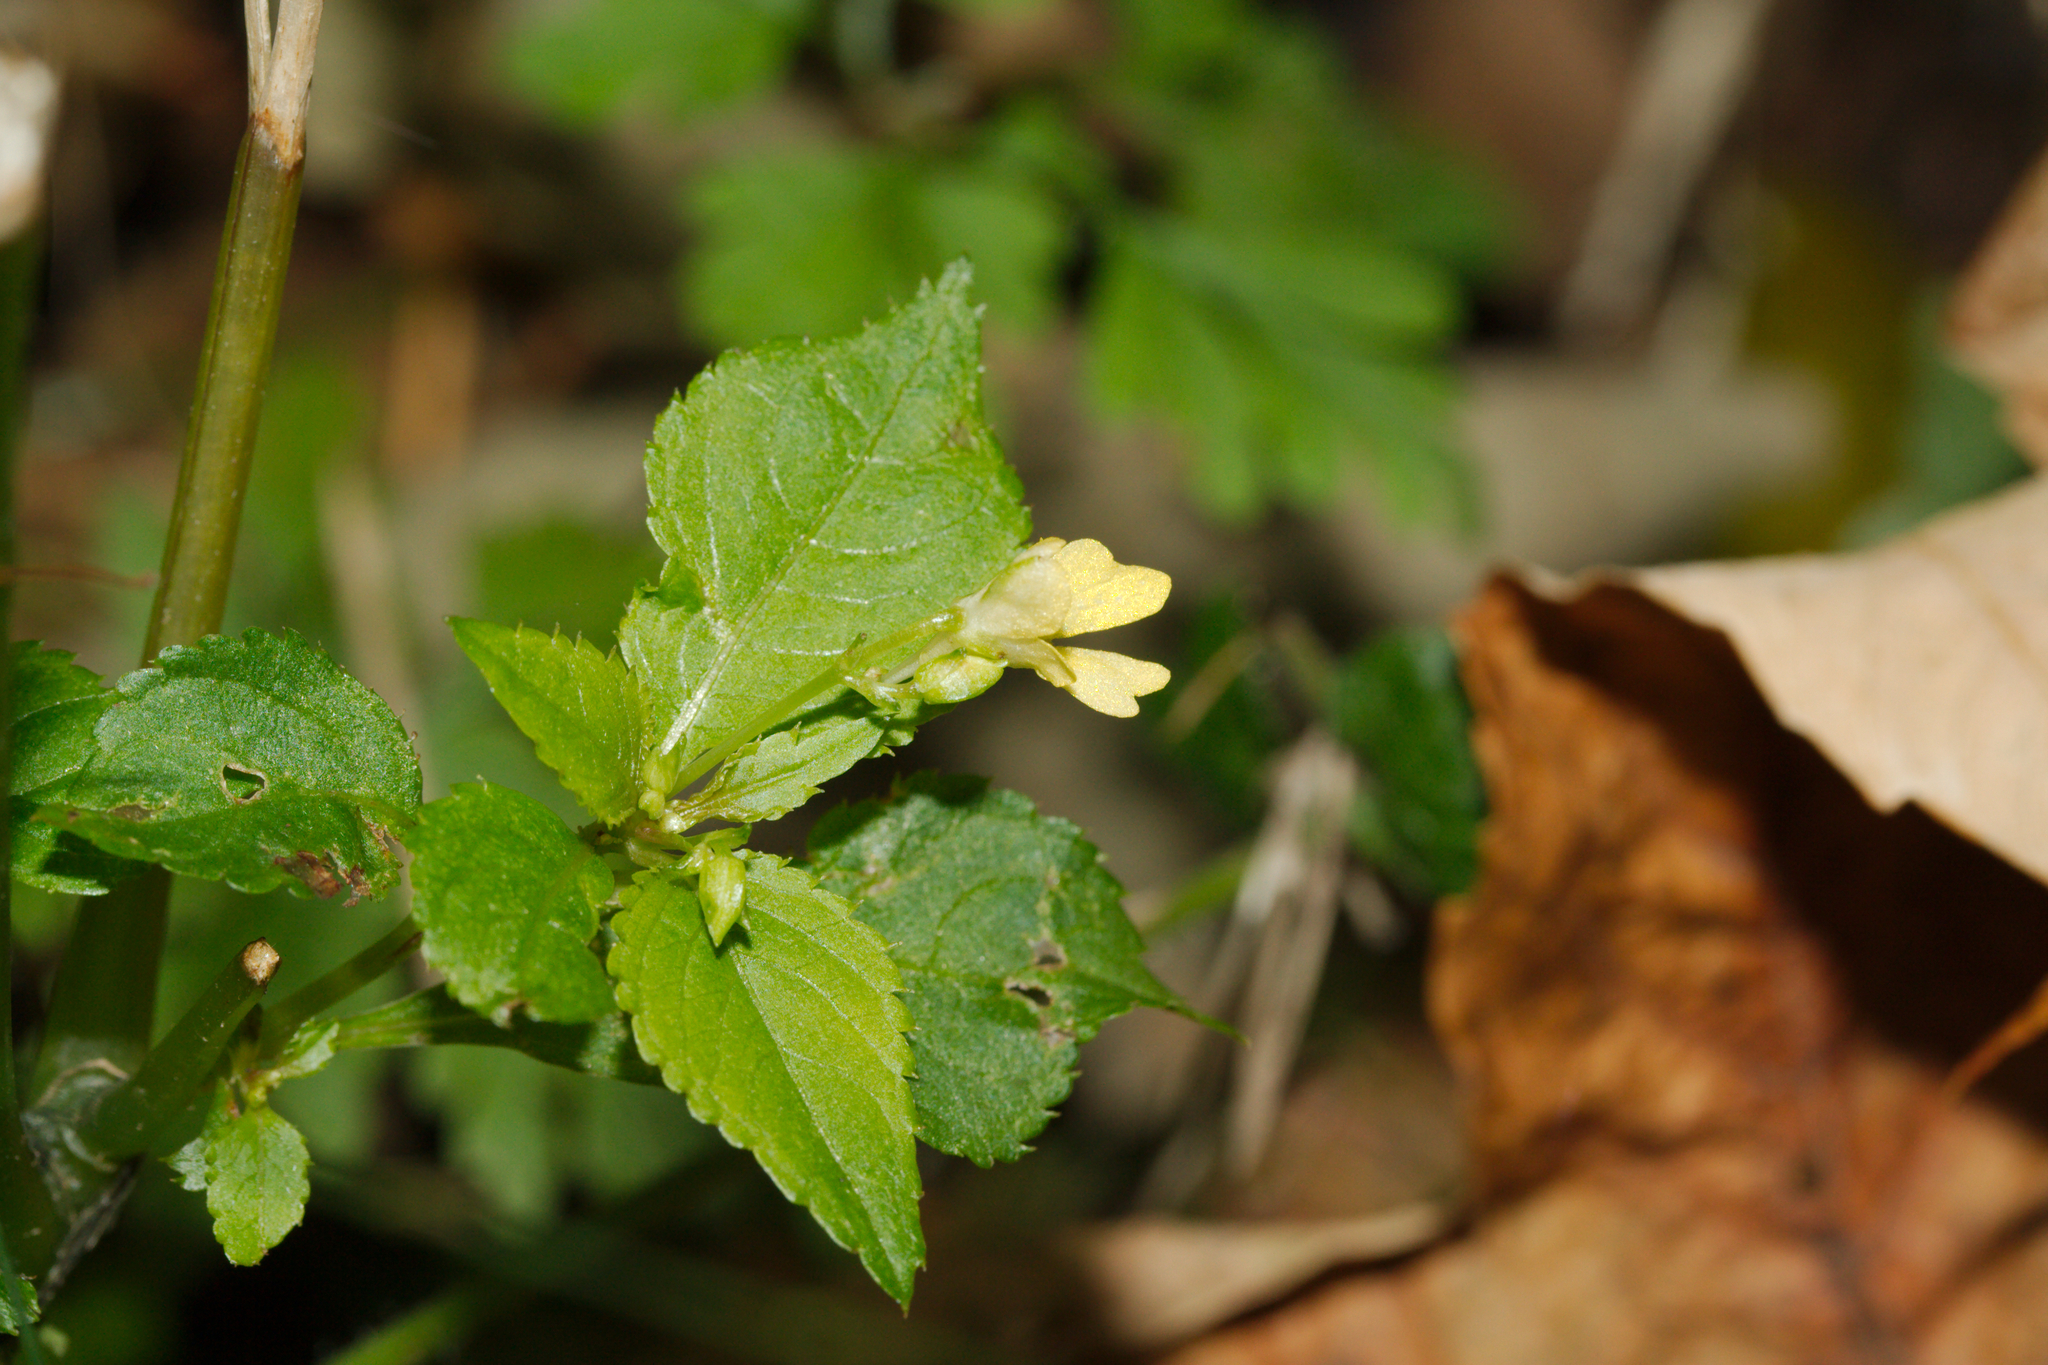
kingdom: Plantae
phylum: Tracheophyta
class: Magnoliopsida
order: Ericales
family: Balsaminaceae
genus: Impatiens
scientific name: Impatiens parviflora
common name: Small balsam
